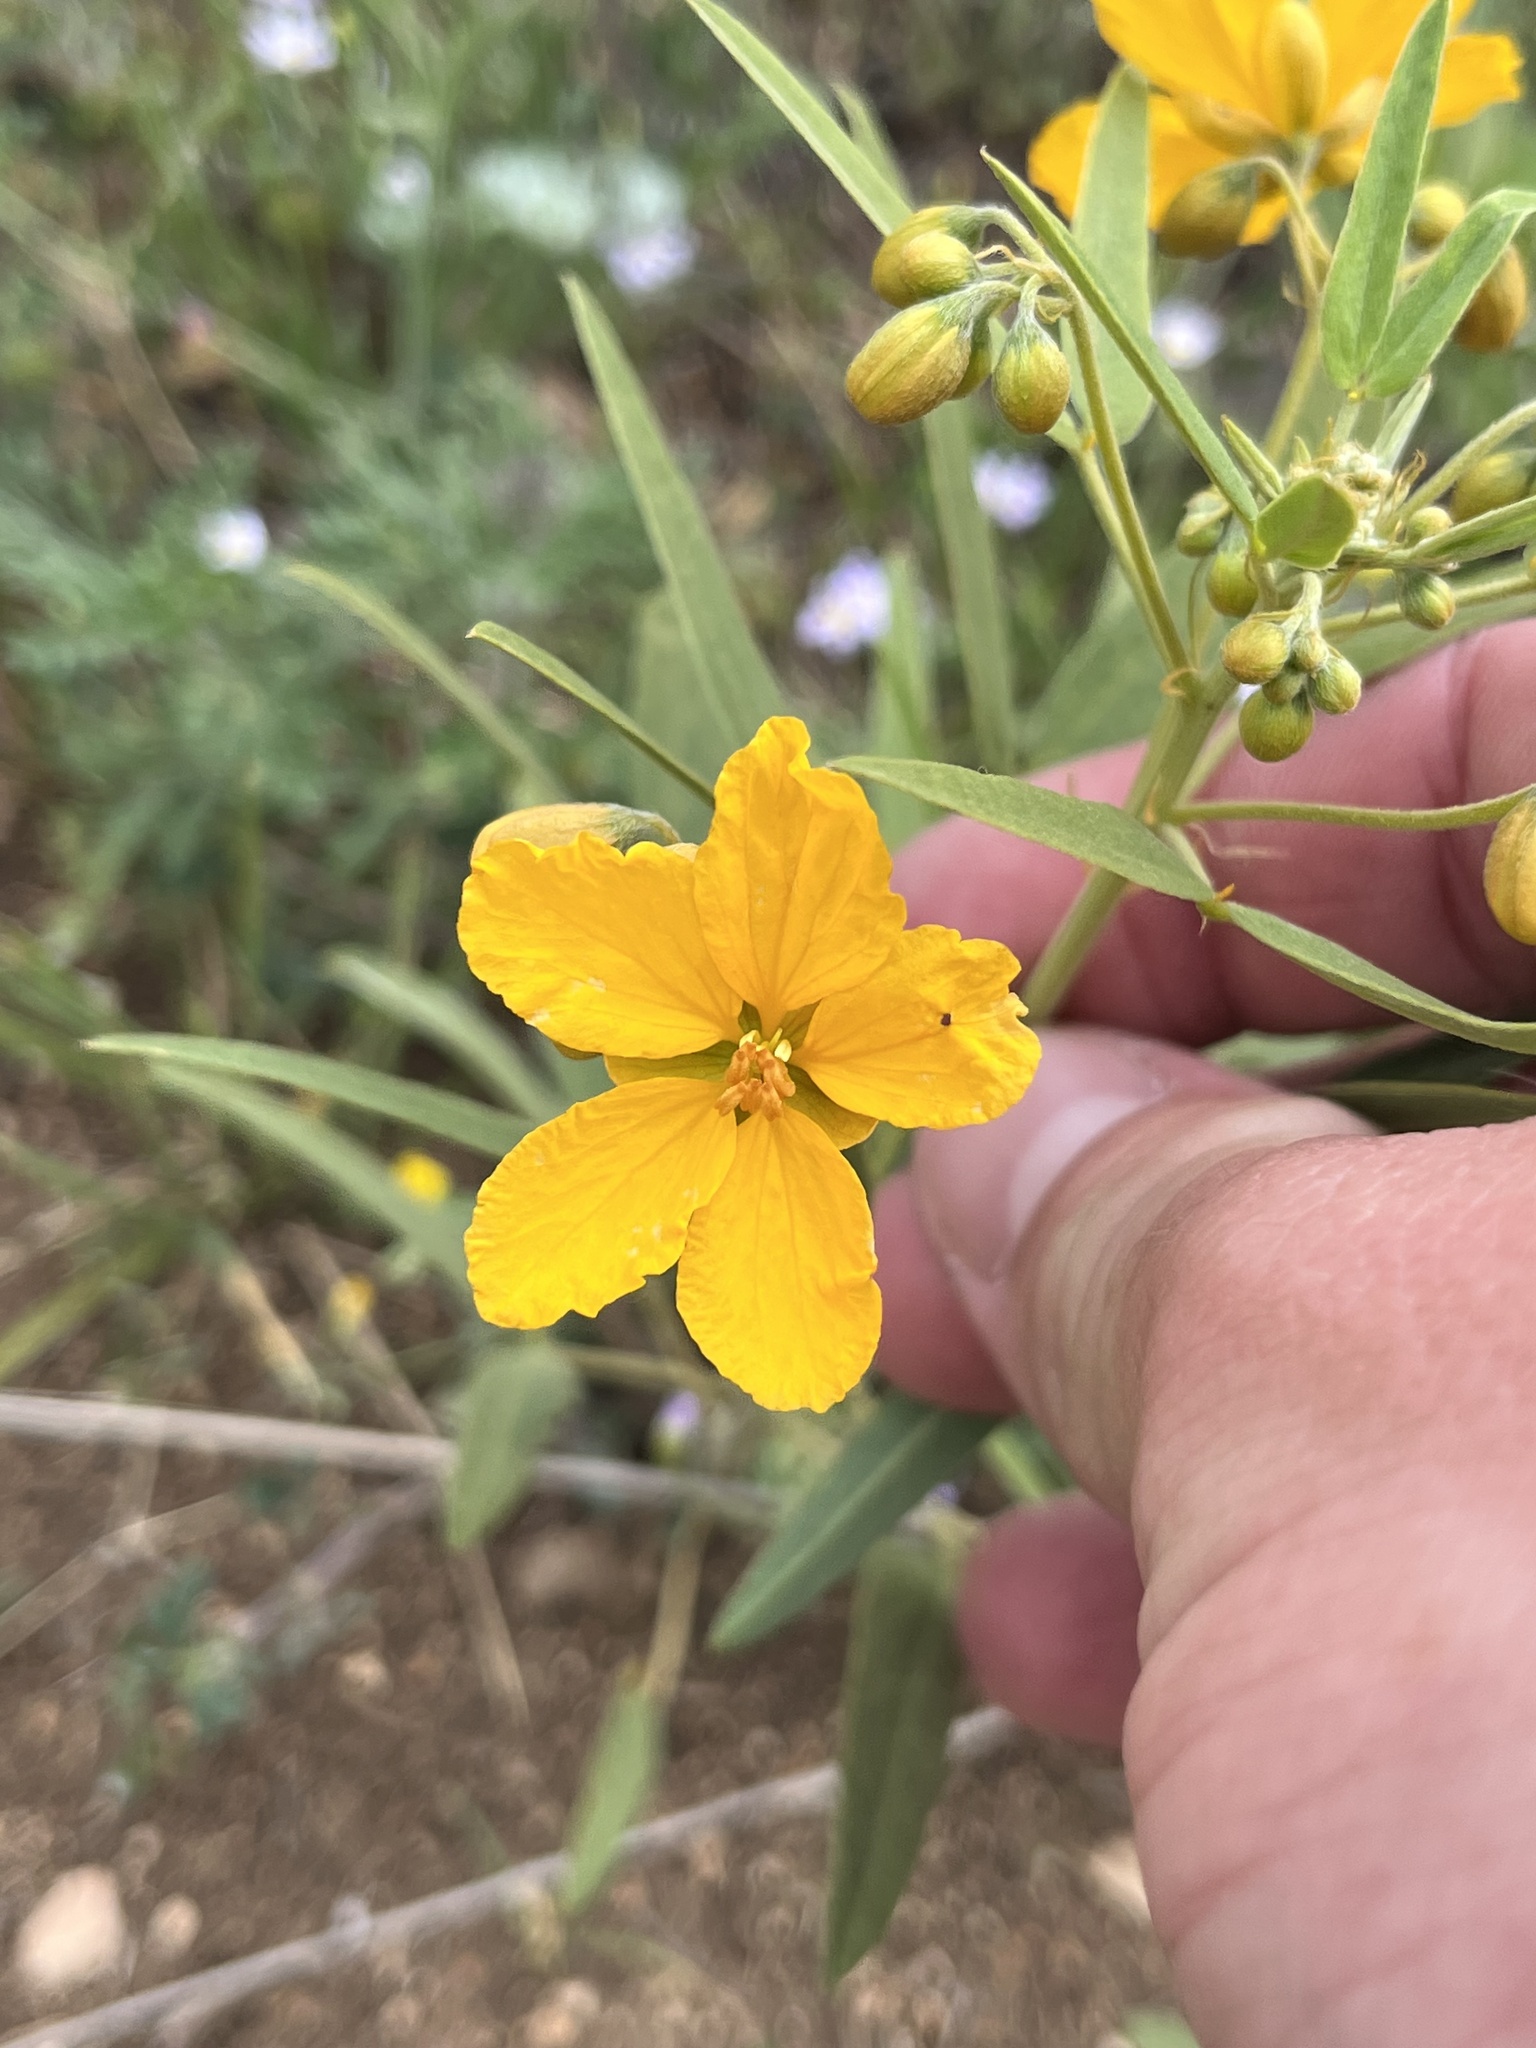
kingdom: Plantae
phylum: Tracheophyta
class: Magnoliopsida
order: Fabales
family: Fabaceae
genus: Senna
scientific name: Senna roemeriana
